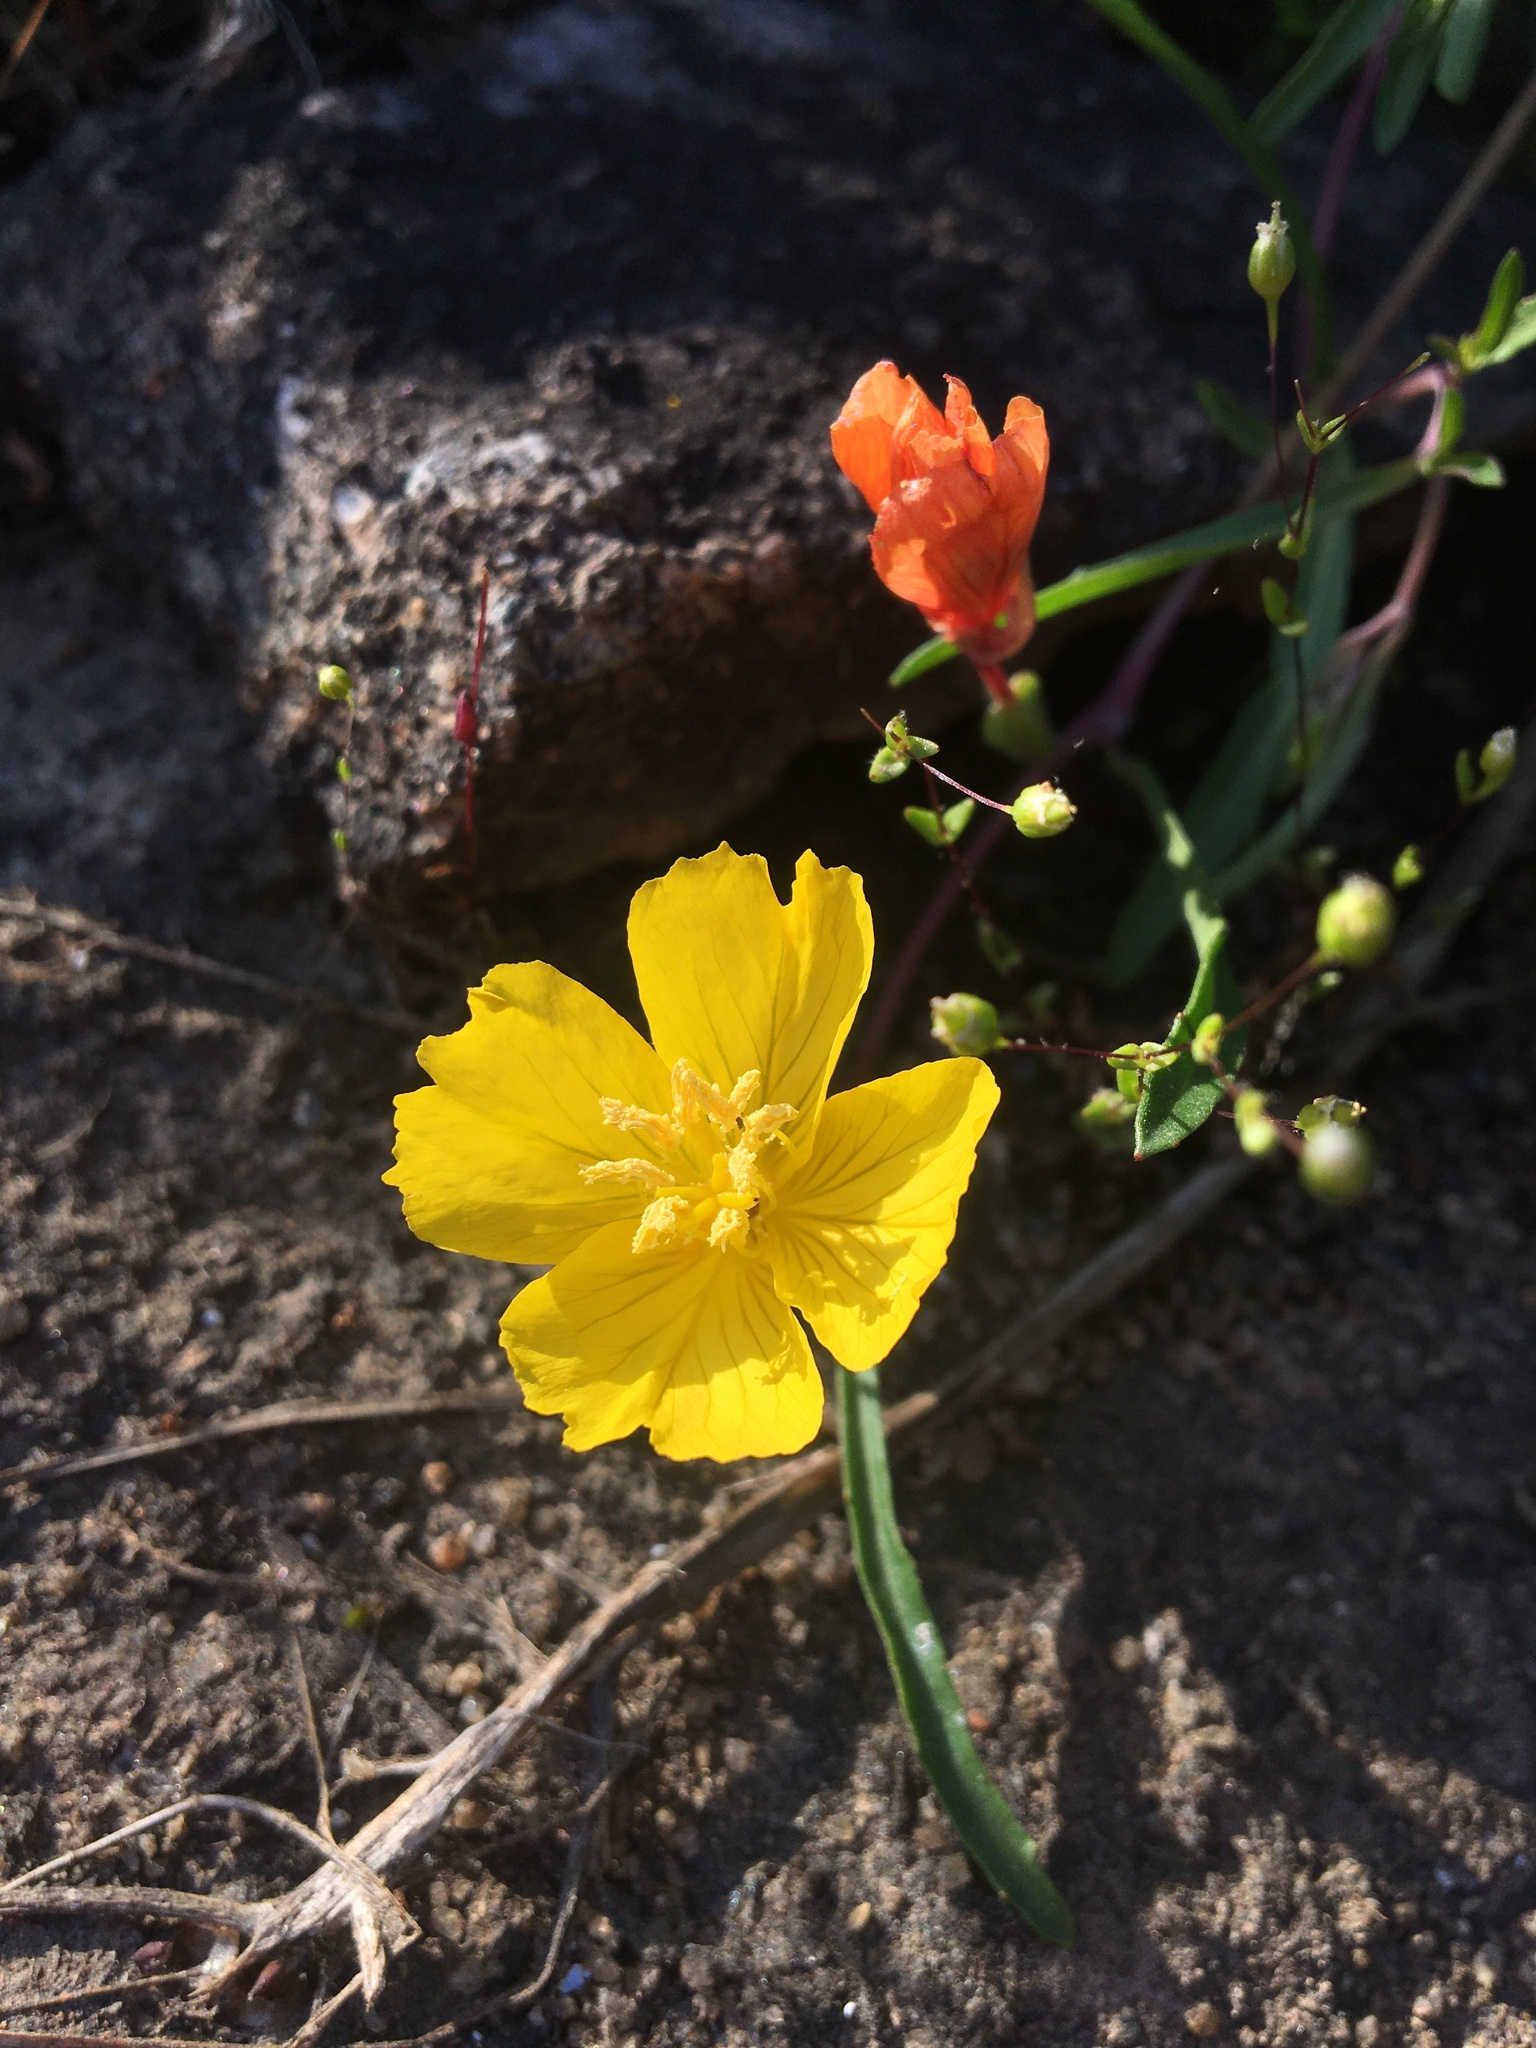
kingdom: Plantae
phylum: Tracheophyta
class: Magnoliopsida
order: Myrtales
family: Onagraceae
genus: Oenothera
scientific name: Oenothera fruticosa
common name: Southern sundrops
